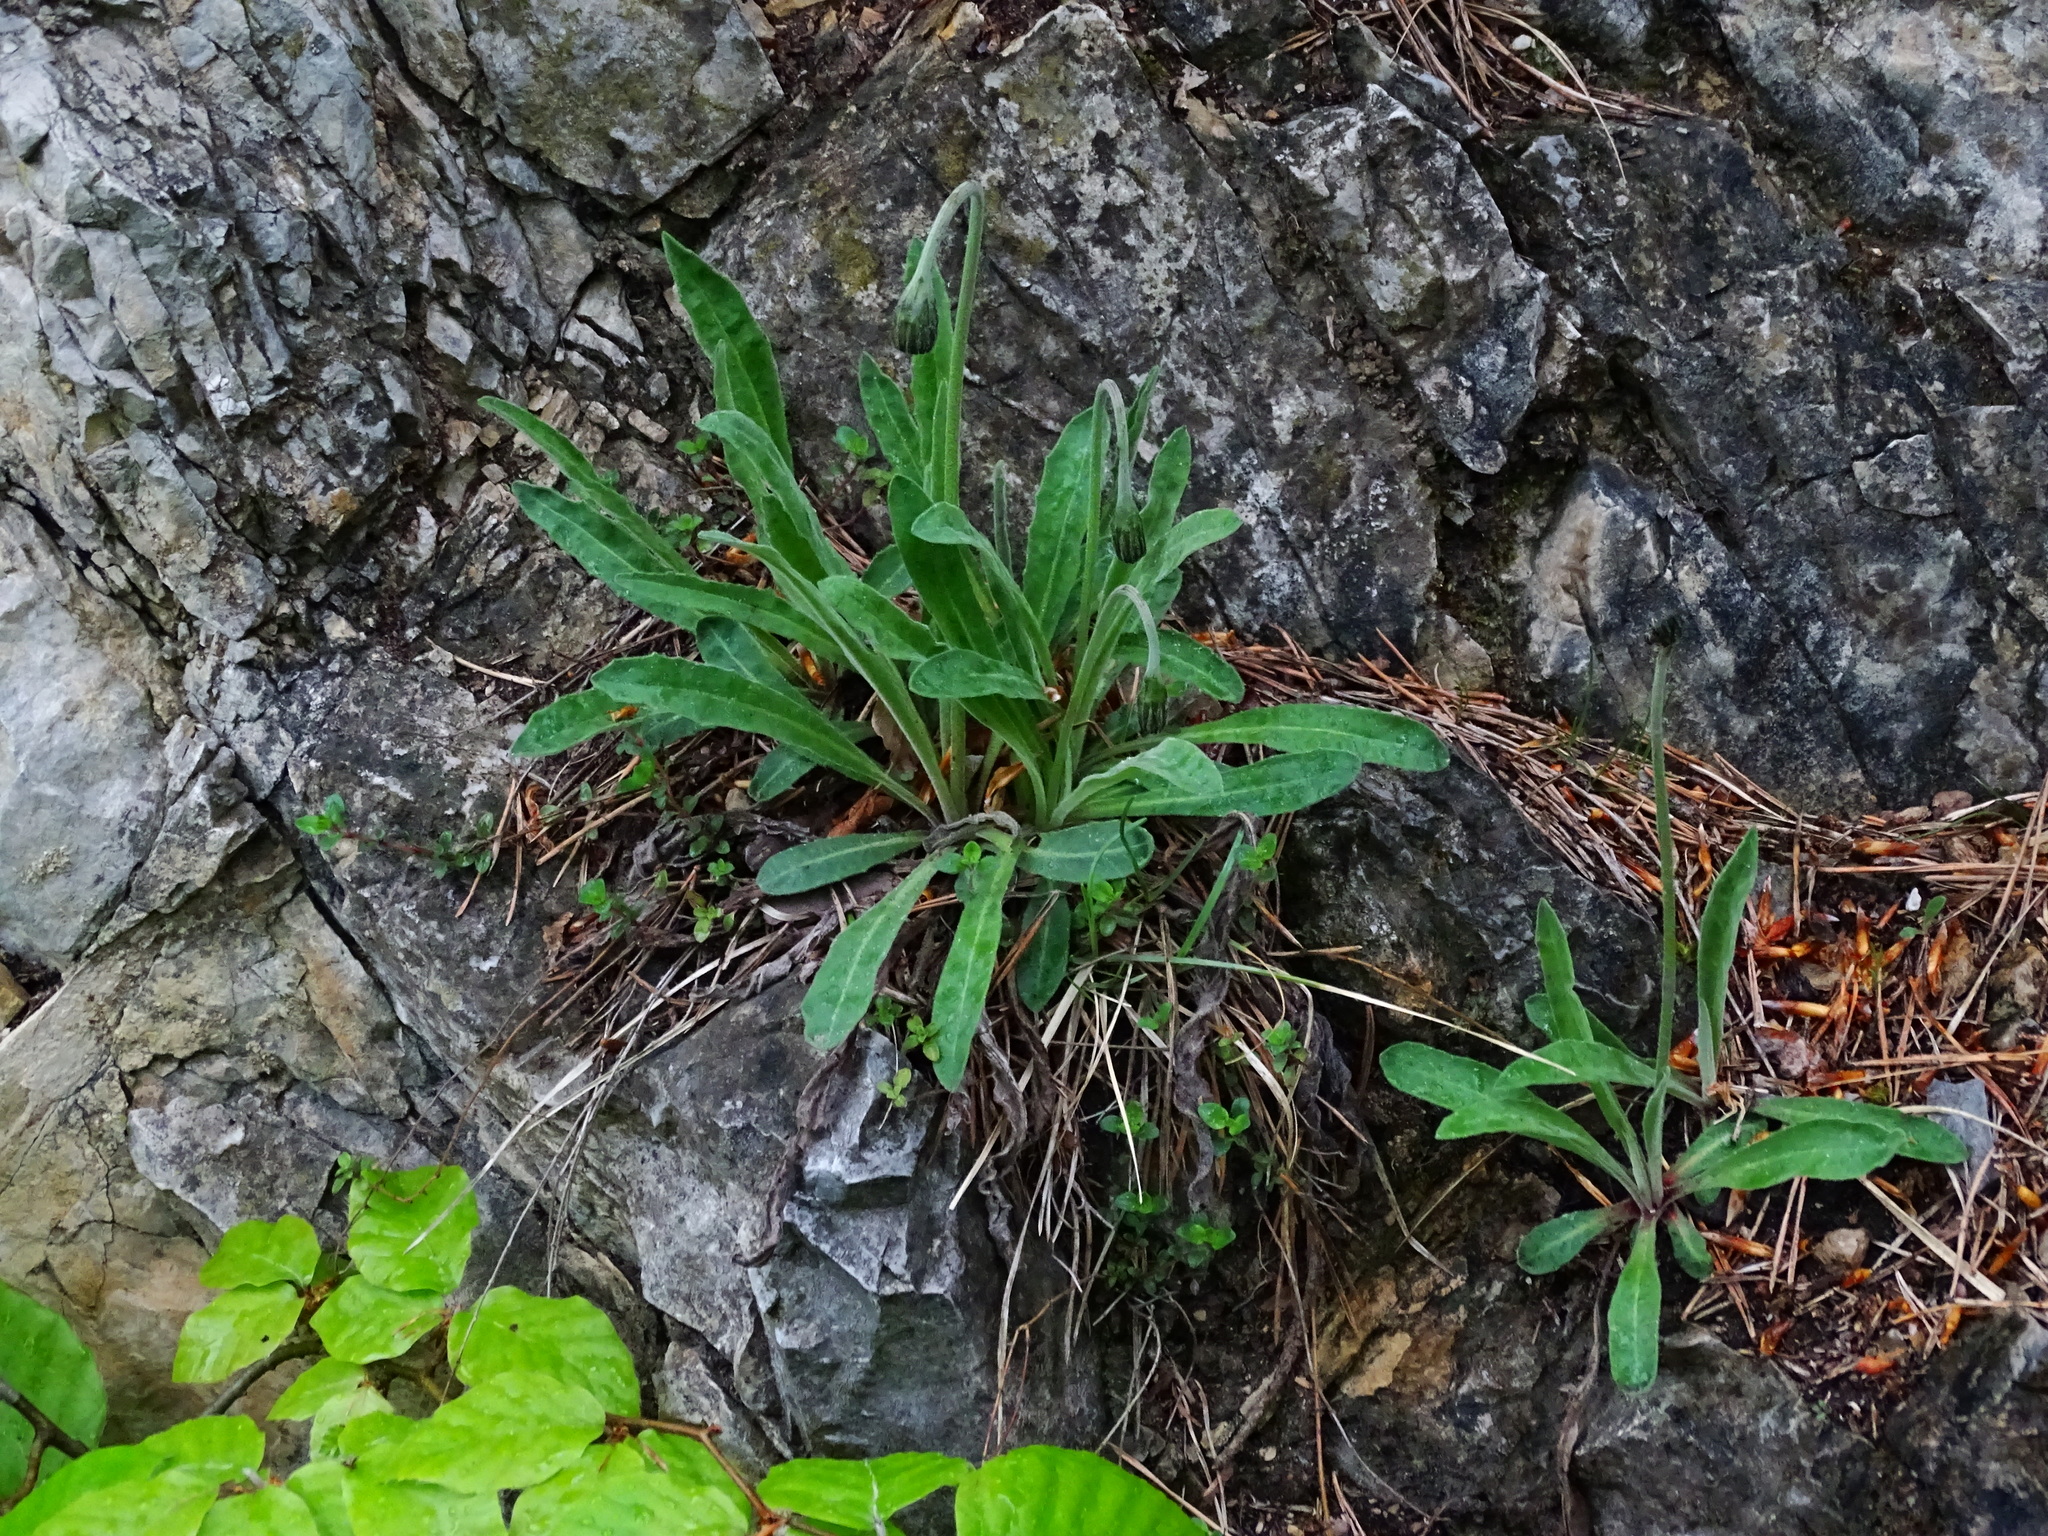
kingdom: Plantae
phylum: Tracheophyta
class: Magnoliopsida
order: Asterales
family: Asteraceae
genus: Leontodon
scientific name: Leontodon incanus
